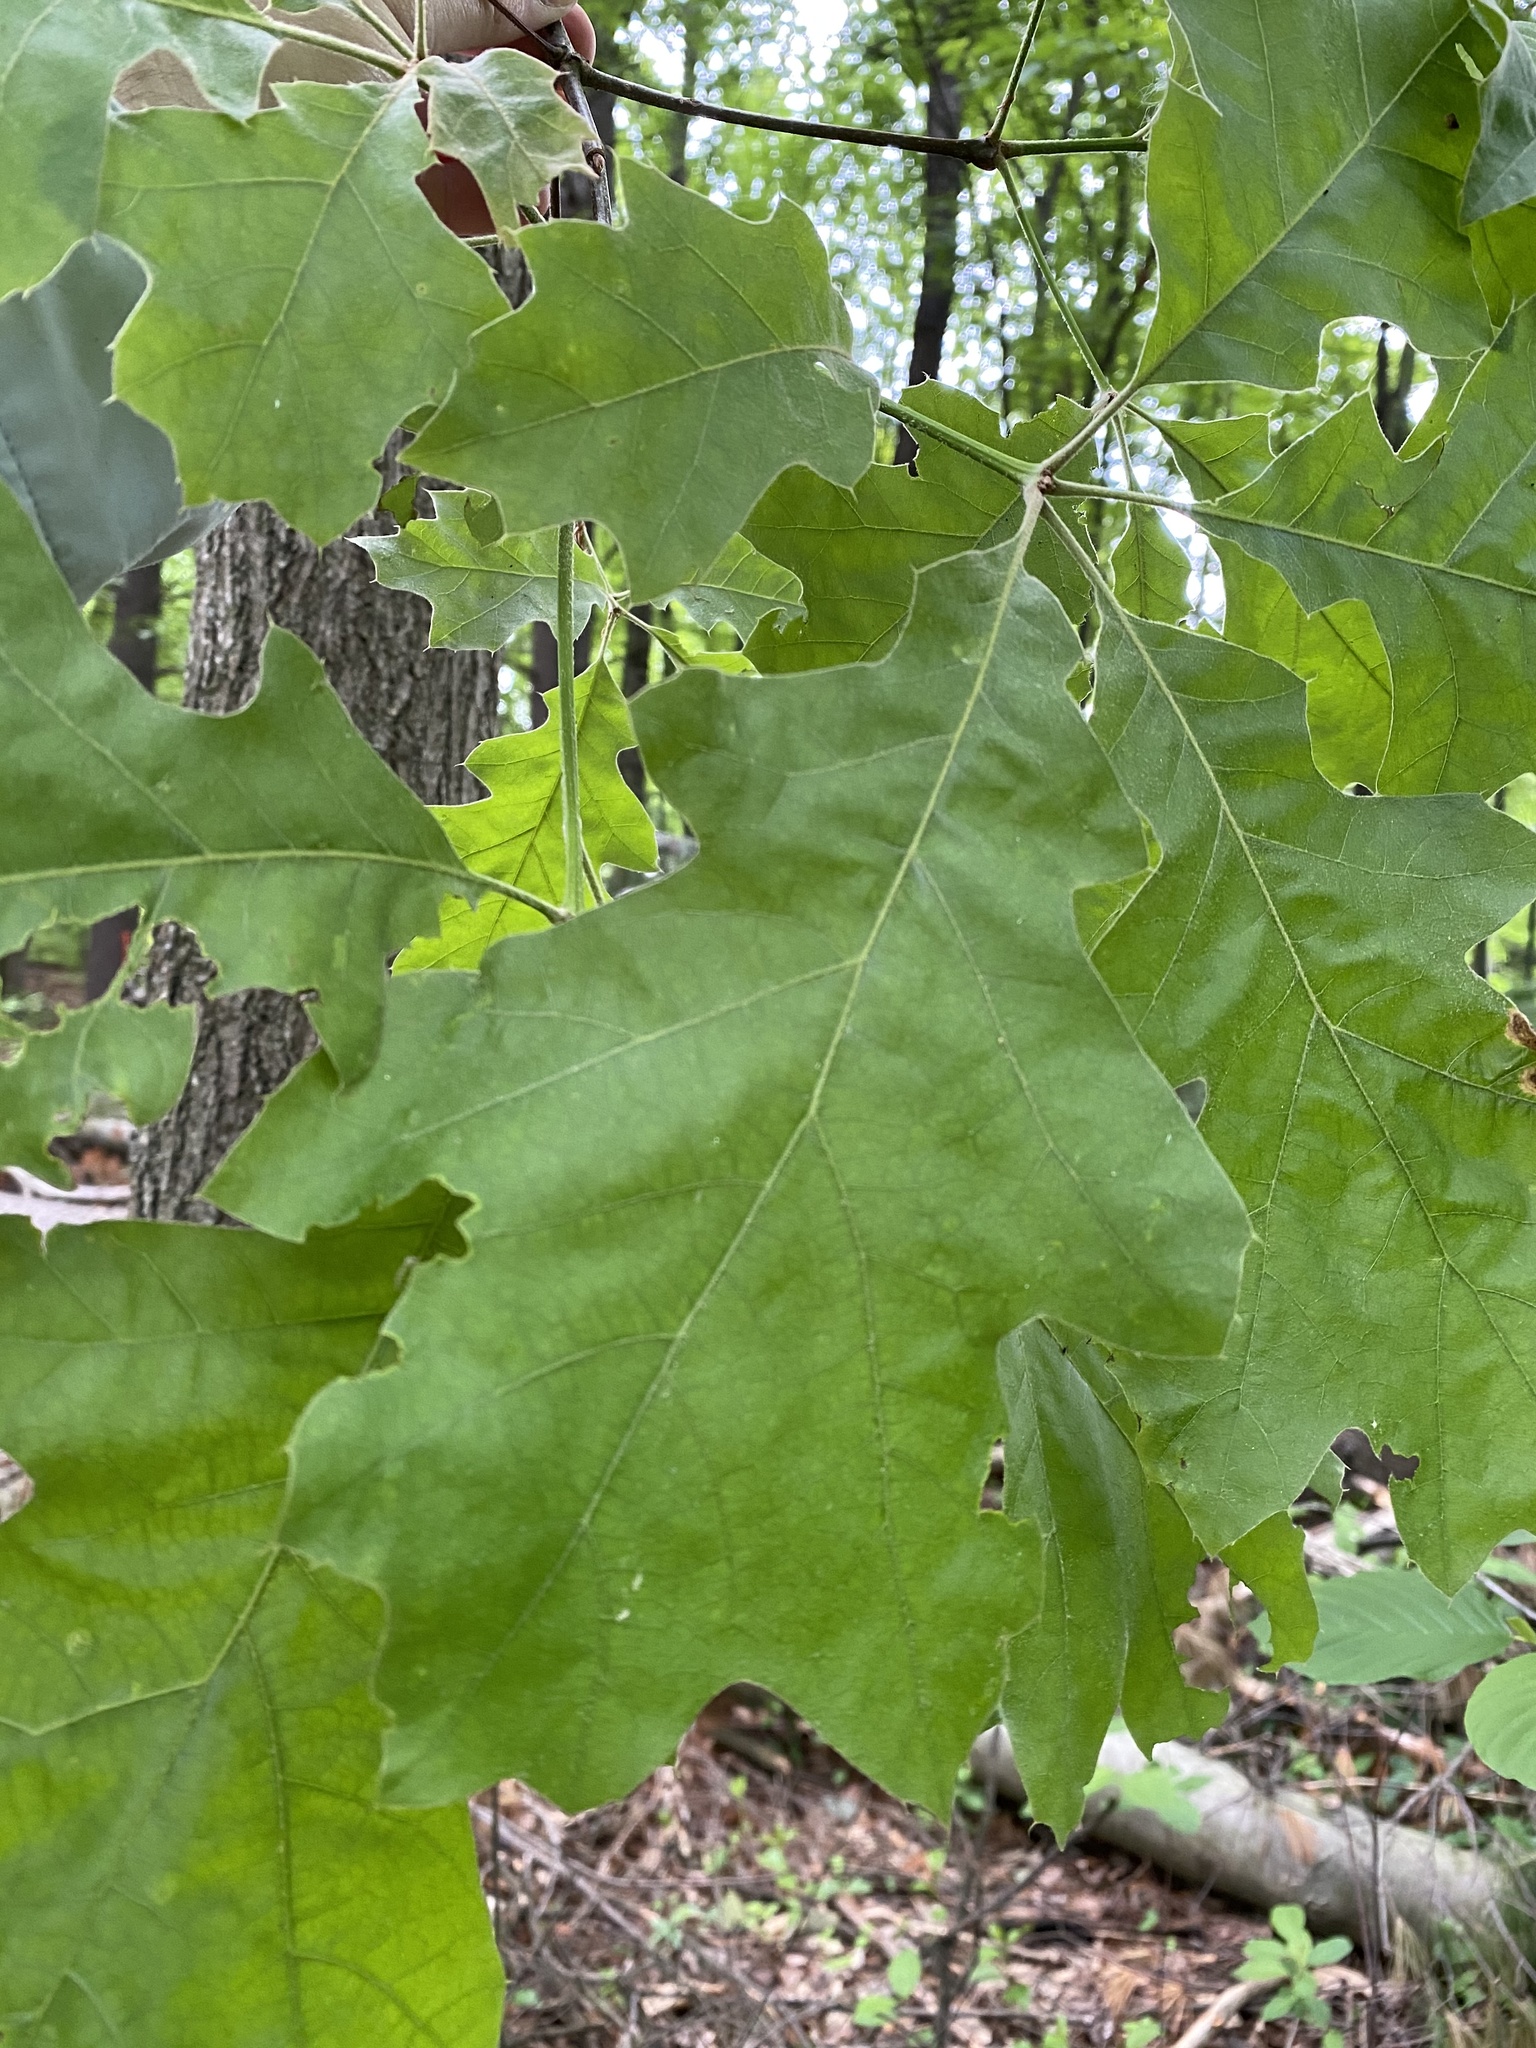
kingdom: Plantae
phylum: Tracheophyta
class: Magnoliopsida
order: Fagales
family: Fagaceae
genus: Quercus
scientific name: Quercus velutina
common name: Black oak
